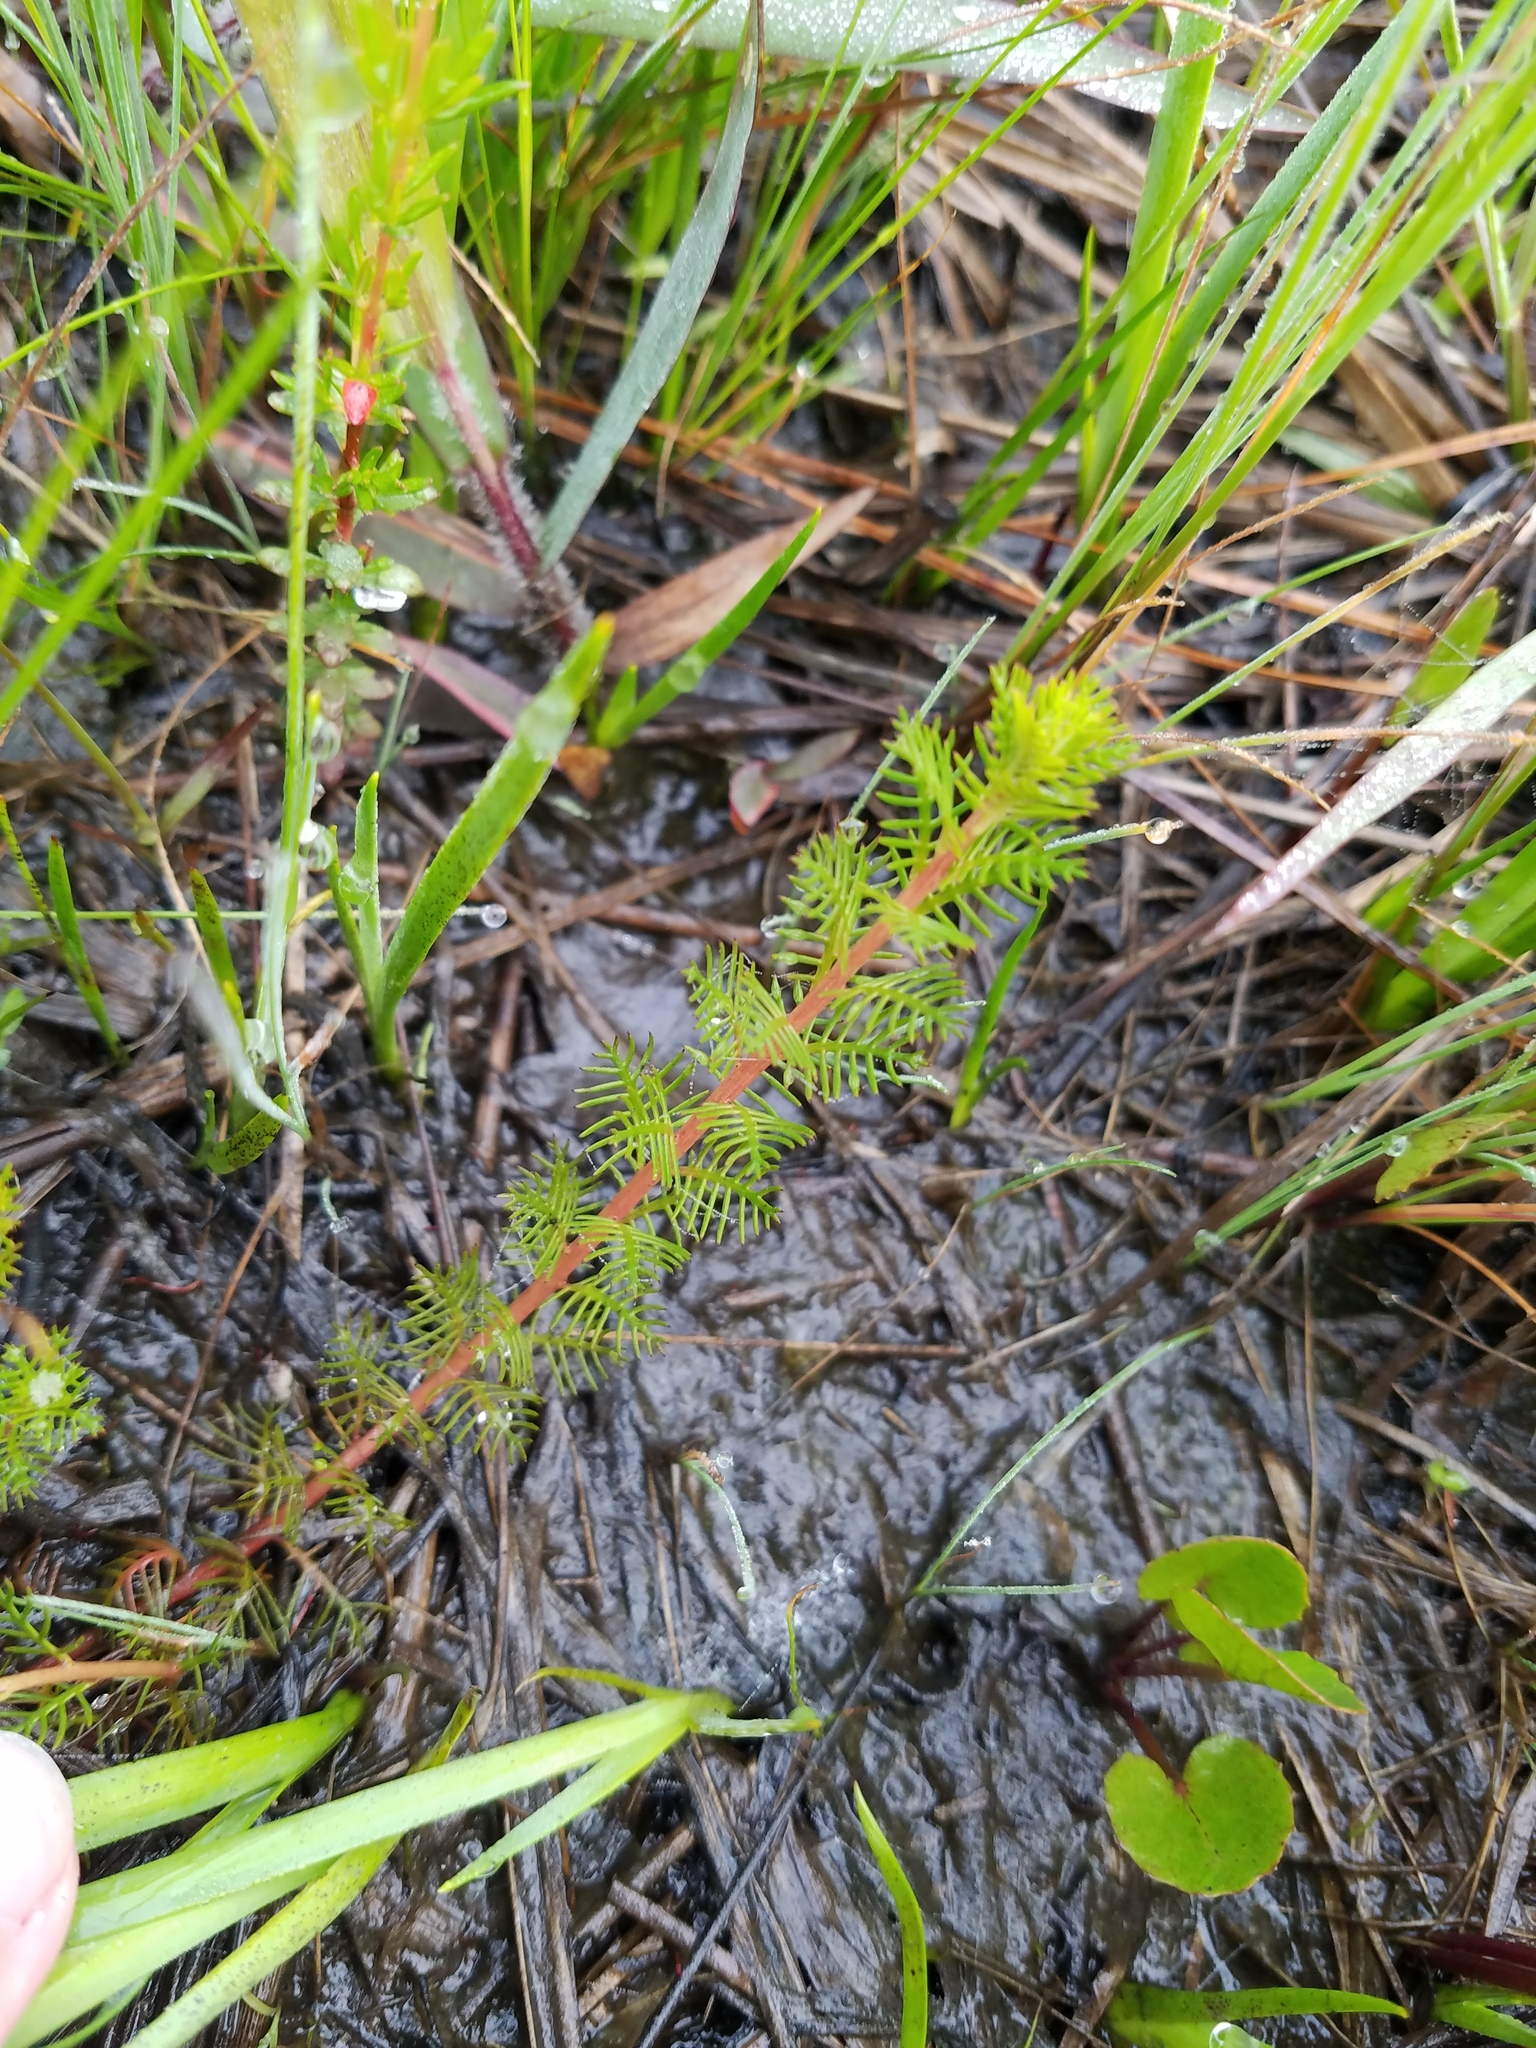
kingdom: Plantae
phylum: Tracheophyta
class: Magnoliopsida
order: Saxifragales
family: Haloragaceae
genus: Proserpinaca
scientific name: Proserpinaca pectinata
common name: Comb-leaved mermaidweed
